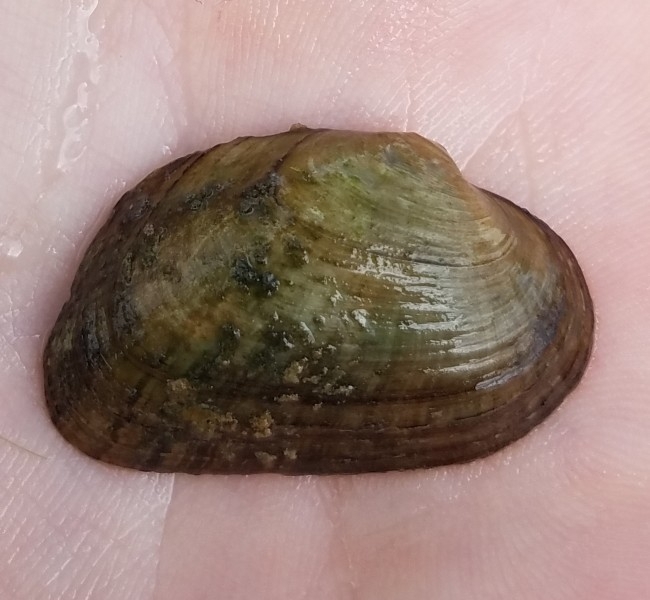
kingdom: Animalia
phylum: Mollusca
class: Bivalvia
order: Unionida
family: Unionidae
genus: Alasmidonta
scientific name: Alasmidonta viridis
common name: Slippershell mussel
